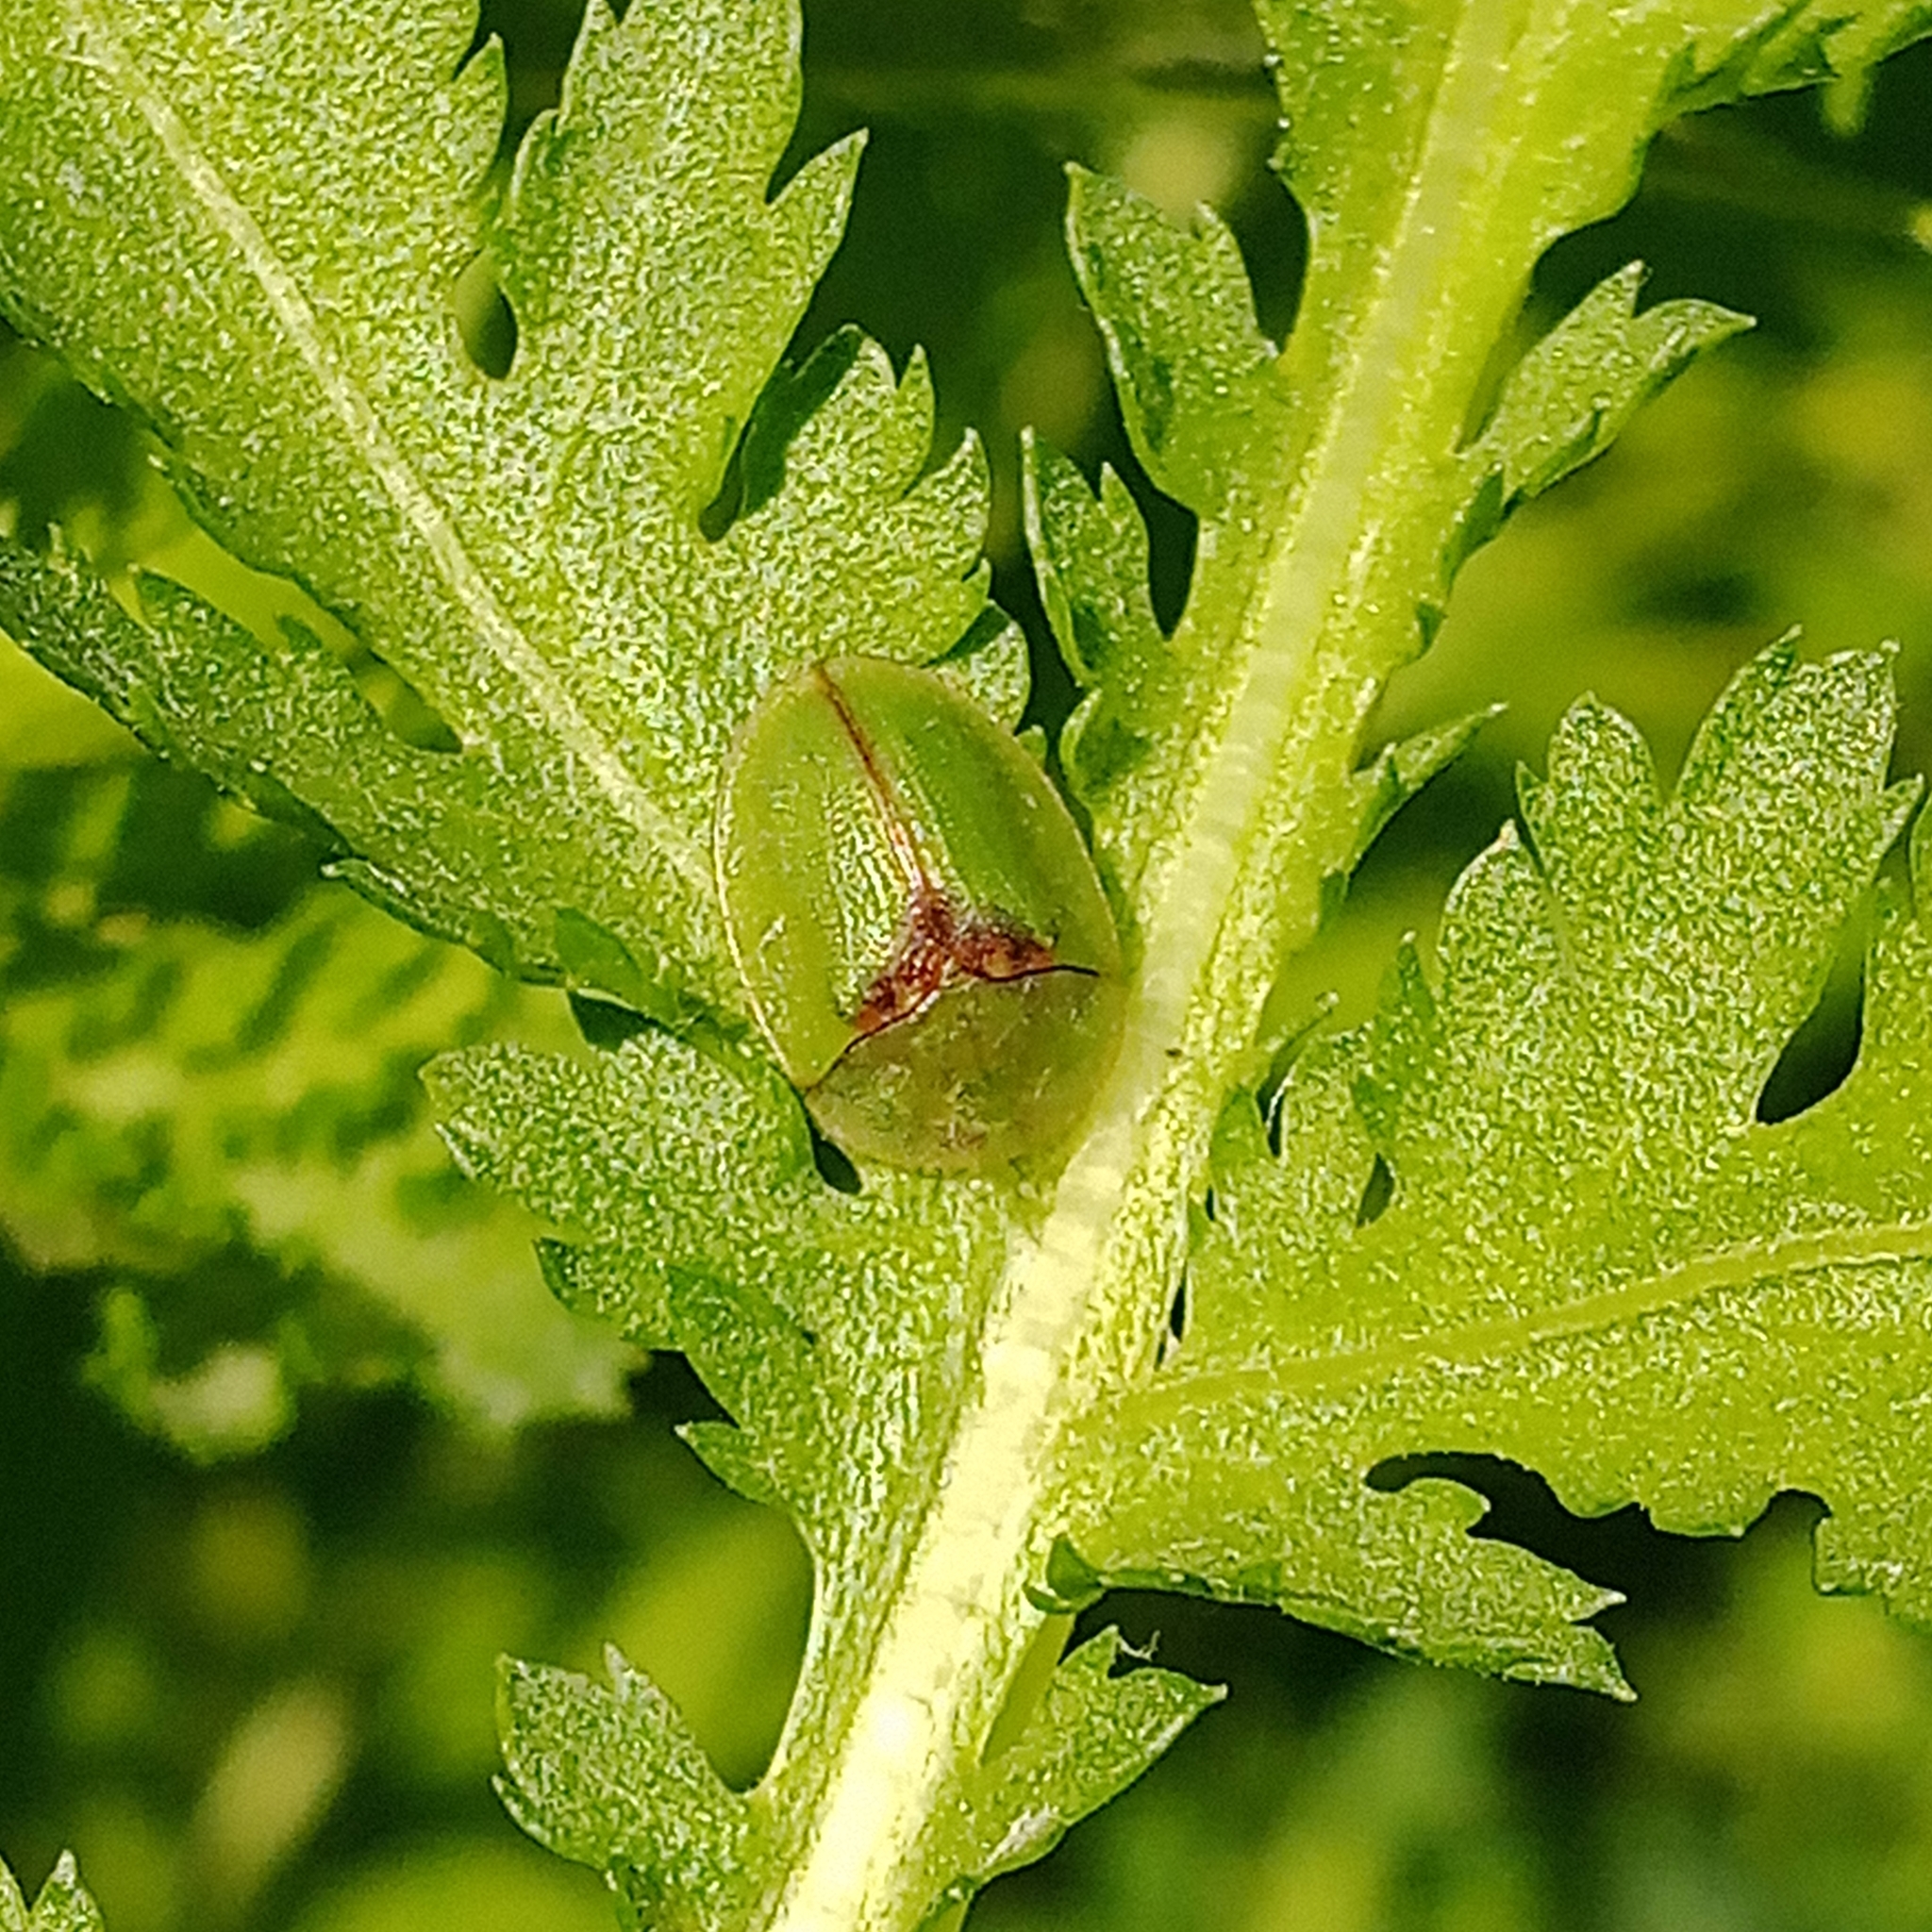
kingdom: Animalia
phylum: Arthropoda
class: Insecta
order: Coleoptera
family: Chrysomelidae
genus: Cassida
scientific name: Cassida sanguinosa
